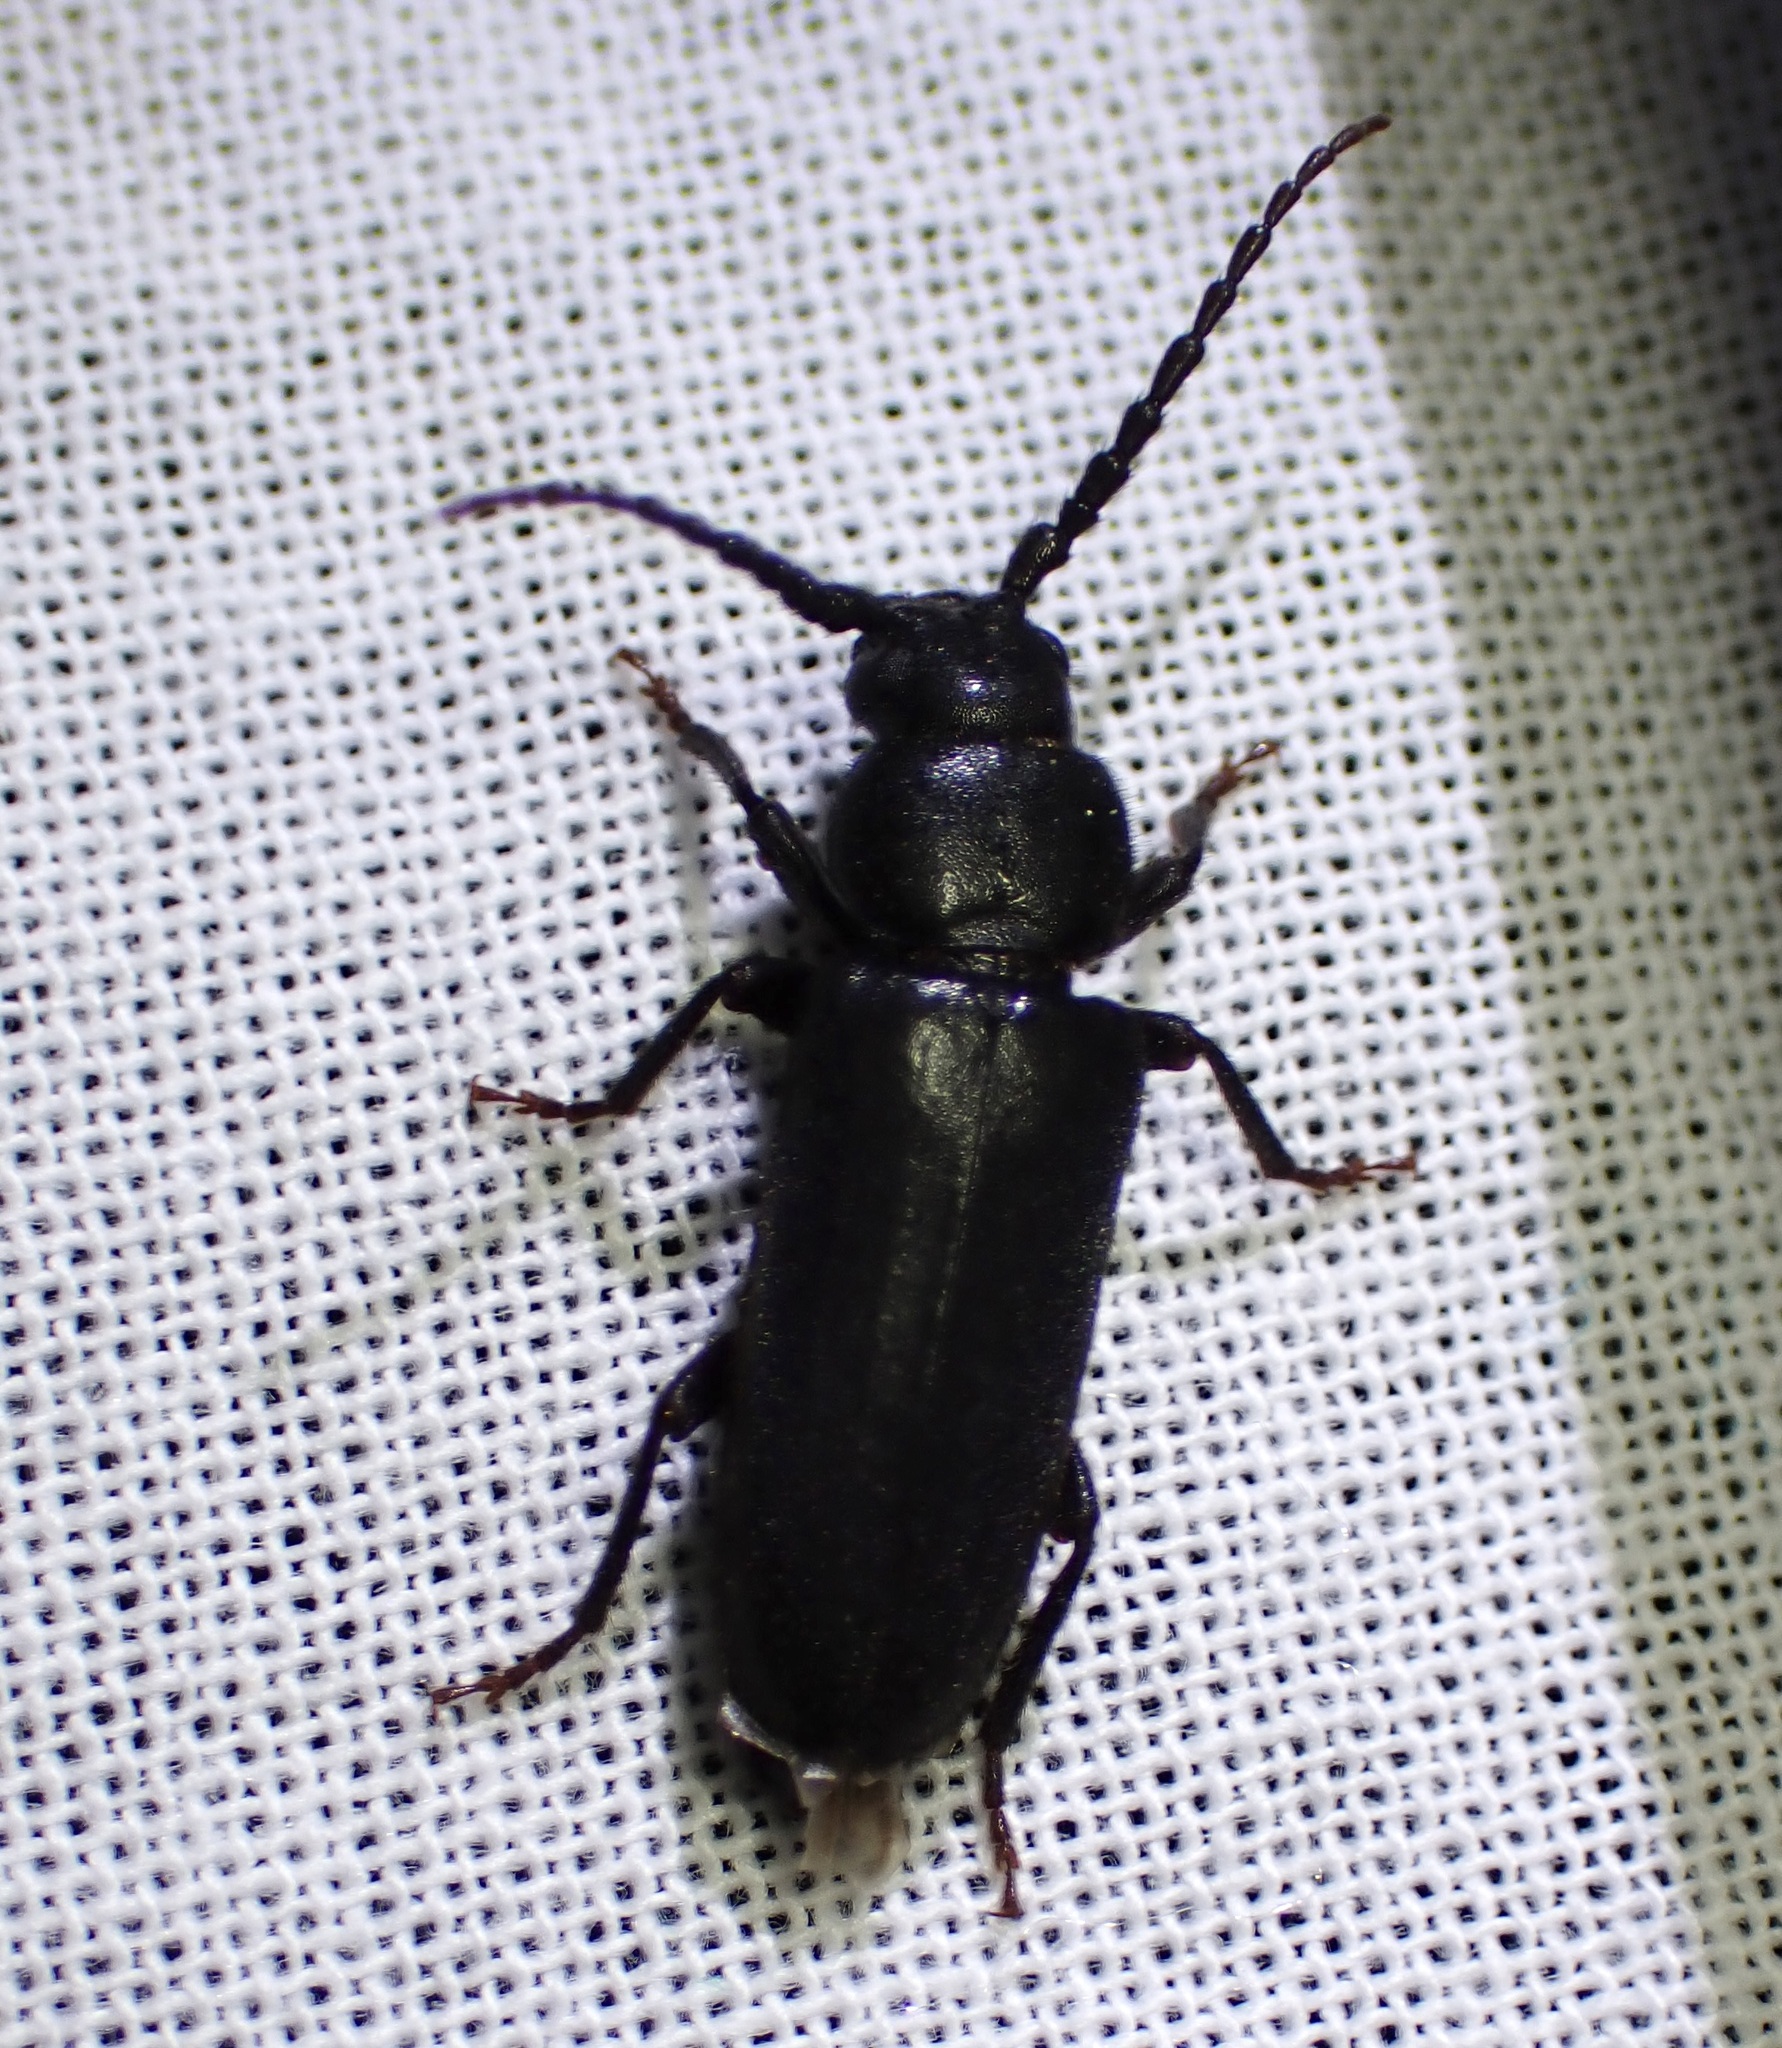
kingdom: Animalia
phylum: Arthropoda
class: Insecta
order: Coleoptera
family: Cerambycidae
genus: Asemum
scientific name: Asemum nitidum
